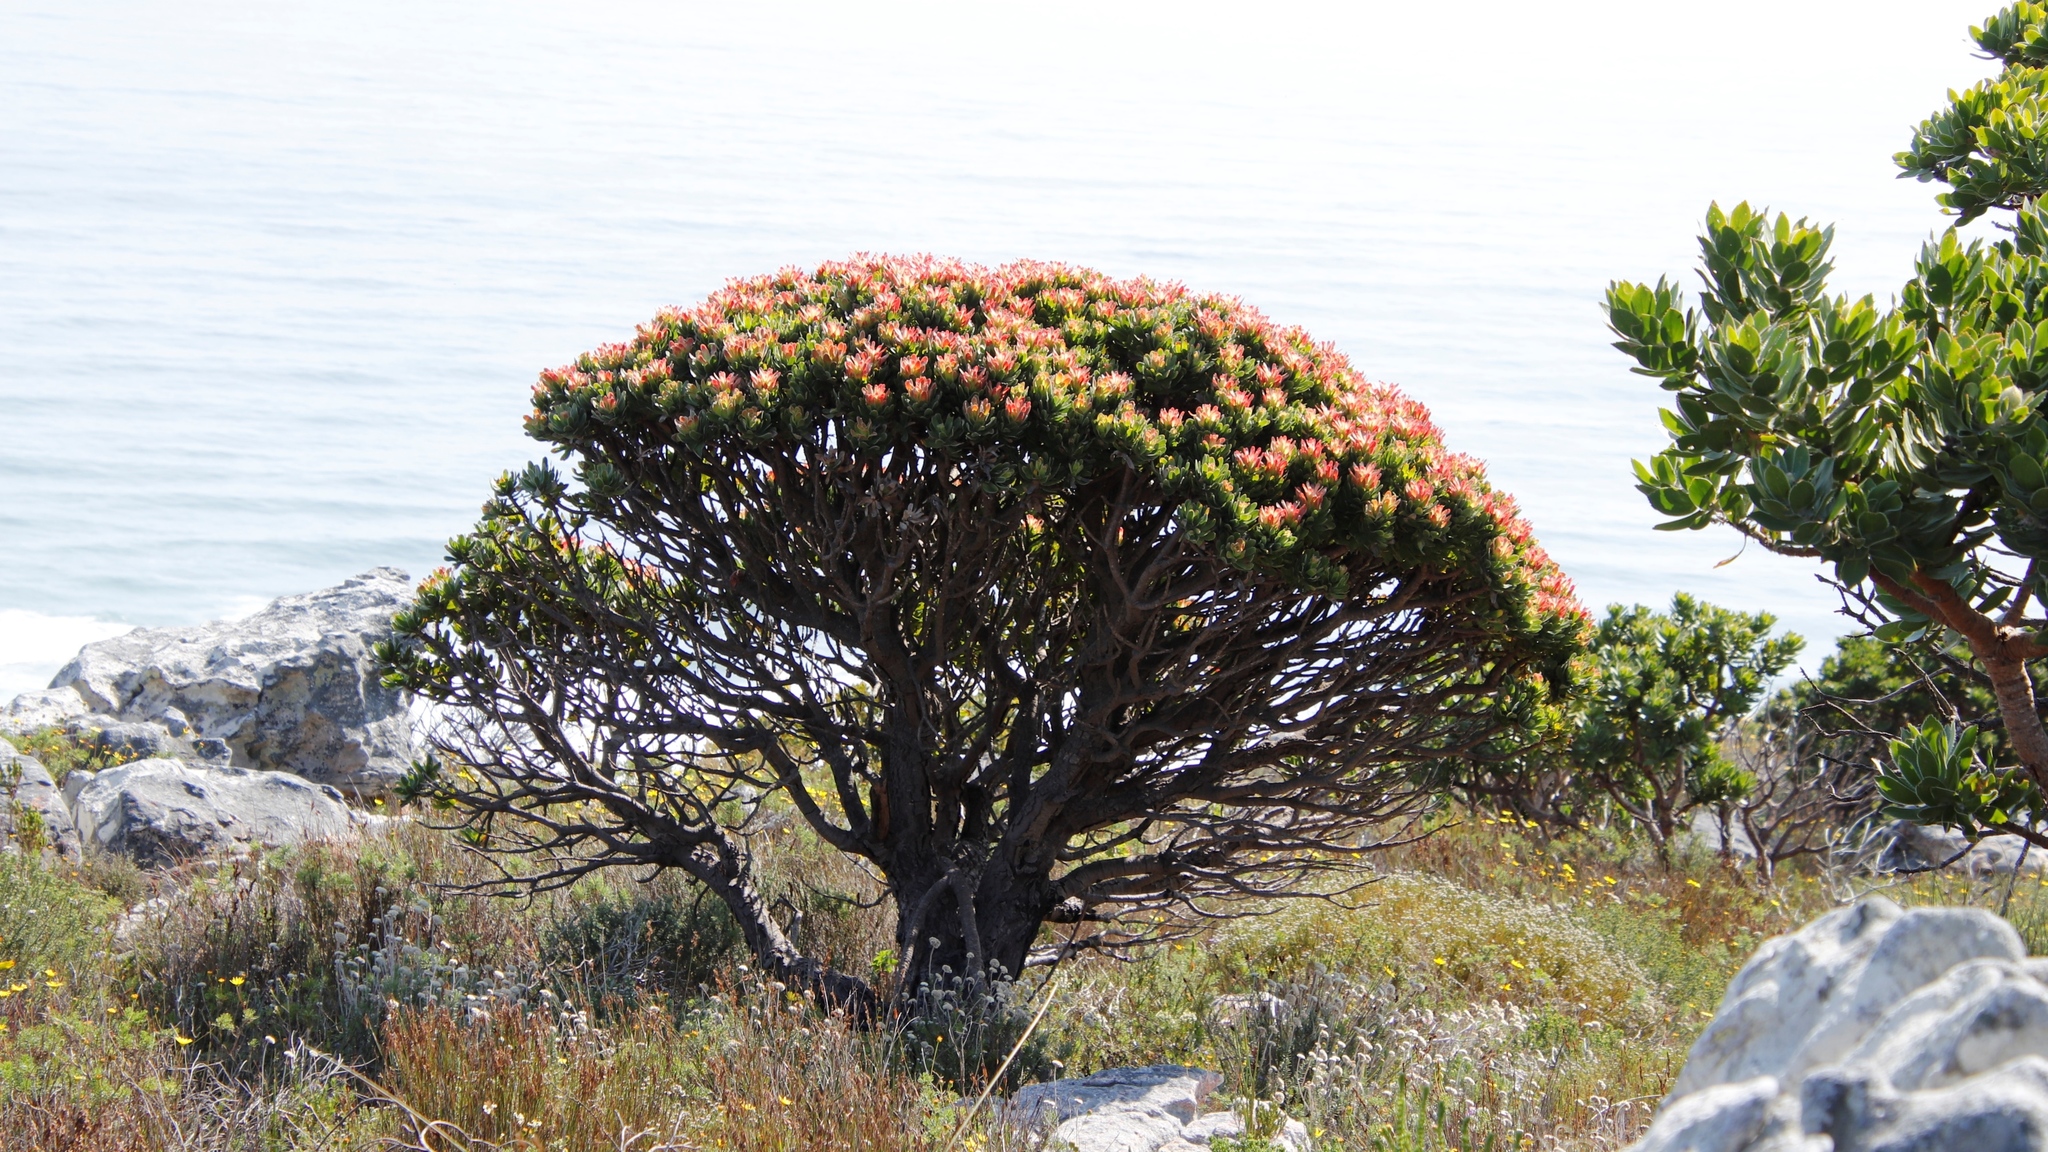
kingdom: Plantae
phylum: Tracheophyta
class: Magnoliopsida
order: Proteales
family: Proteaceae
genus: Mimetes
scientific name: Mimetes fimbriifolius
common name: Fringed bottlebrush
